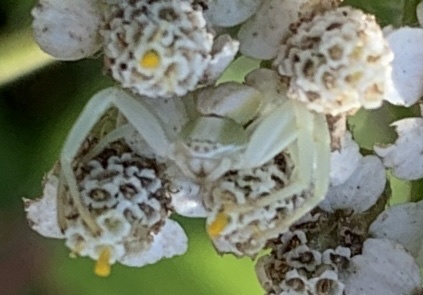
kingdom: Animalia
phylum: Arthropoda
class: Arachnida
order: Araneae
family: Thomisidae
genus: Misumenoides
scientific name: Misumenoides formosipes
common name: White-banded crab spider
